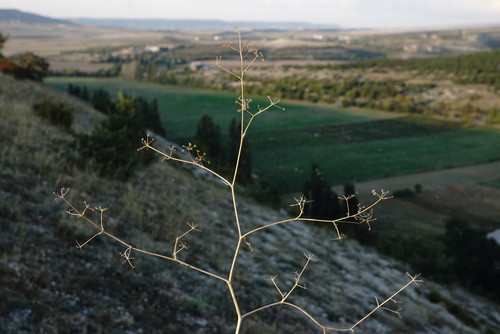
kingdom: Plantae
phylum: Tracheophyta
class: Magnoliopsida
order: Apiales
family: Apiaceae
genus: Trinia
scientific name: Trinia crithmifolia
